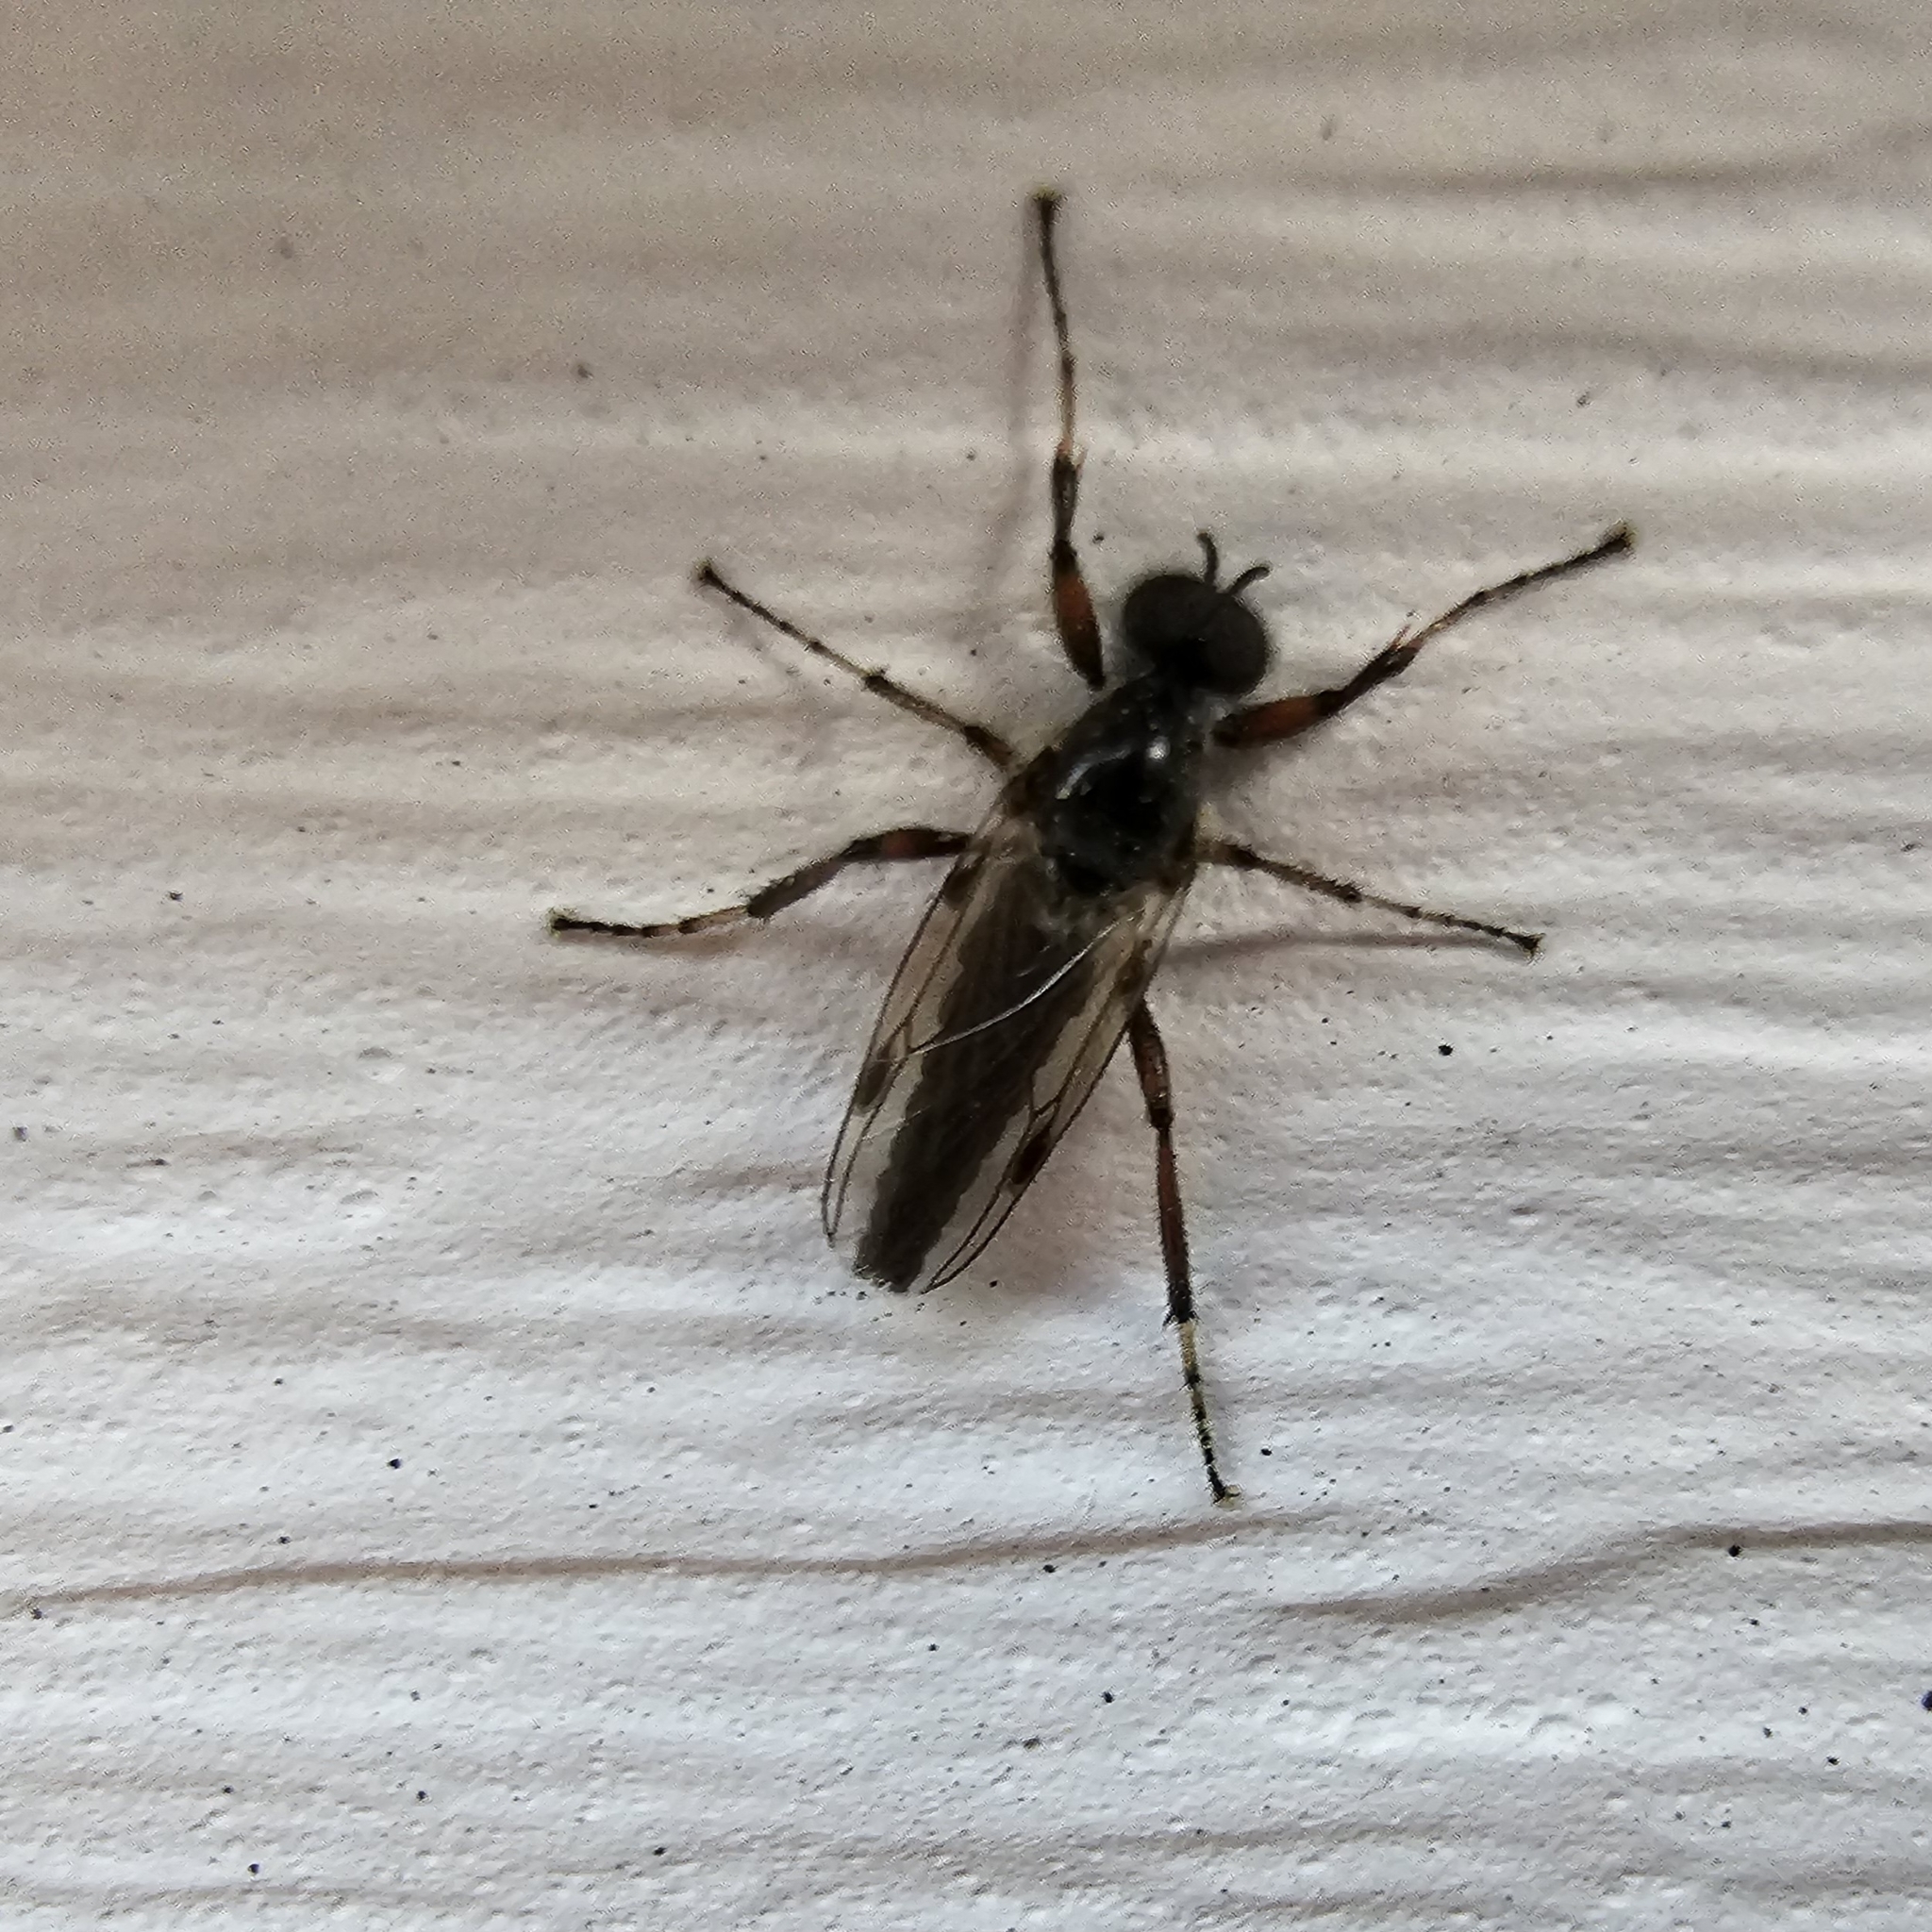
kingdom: Animalia
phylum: Arthropoda
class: Insecta
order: Diptera
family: Bibionidae
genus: Bibio
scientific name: Bibio articulatus
